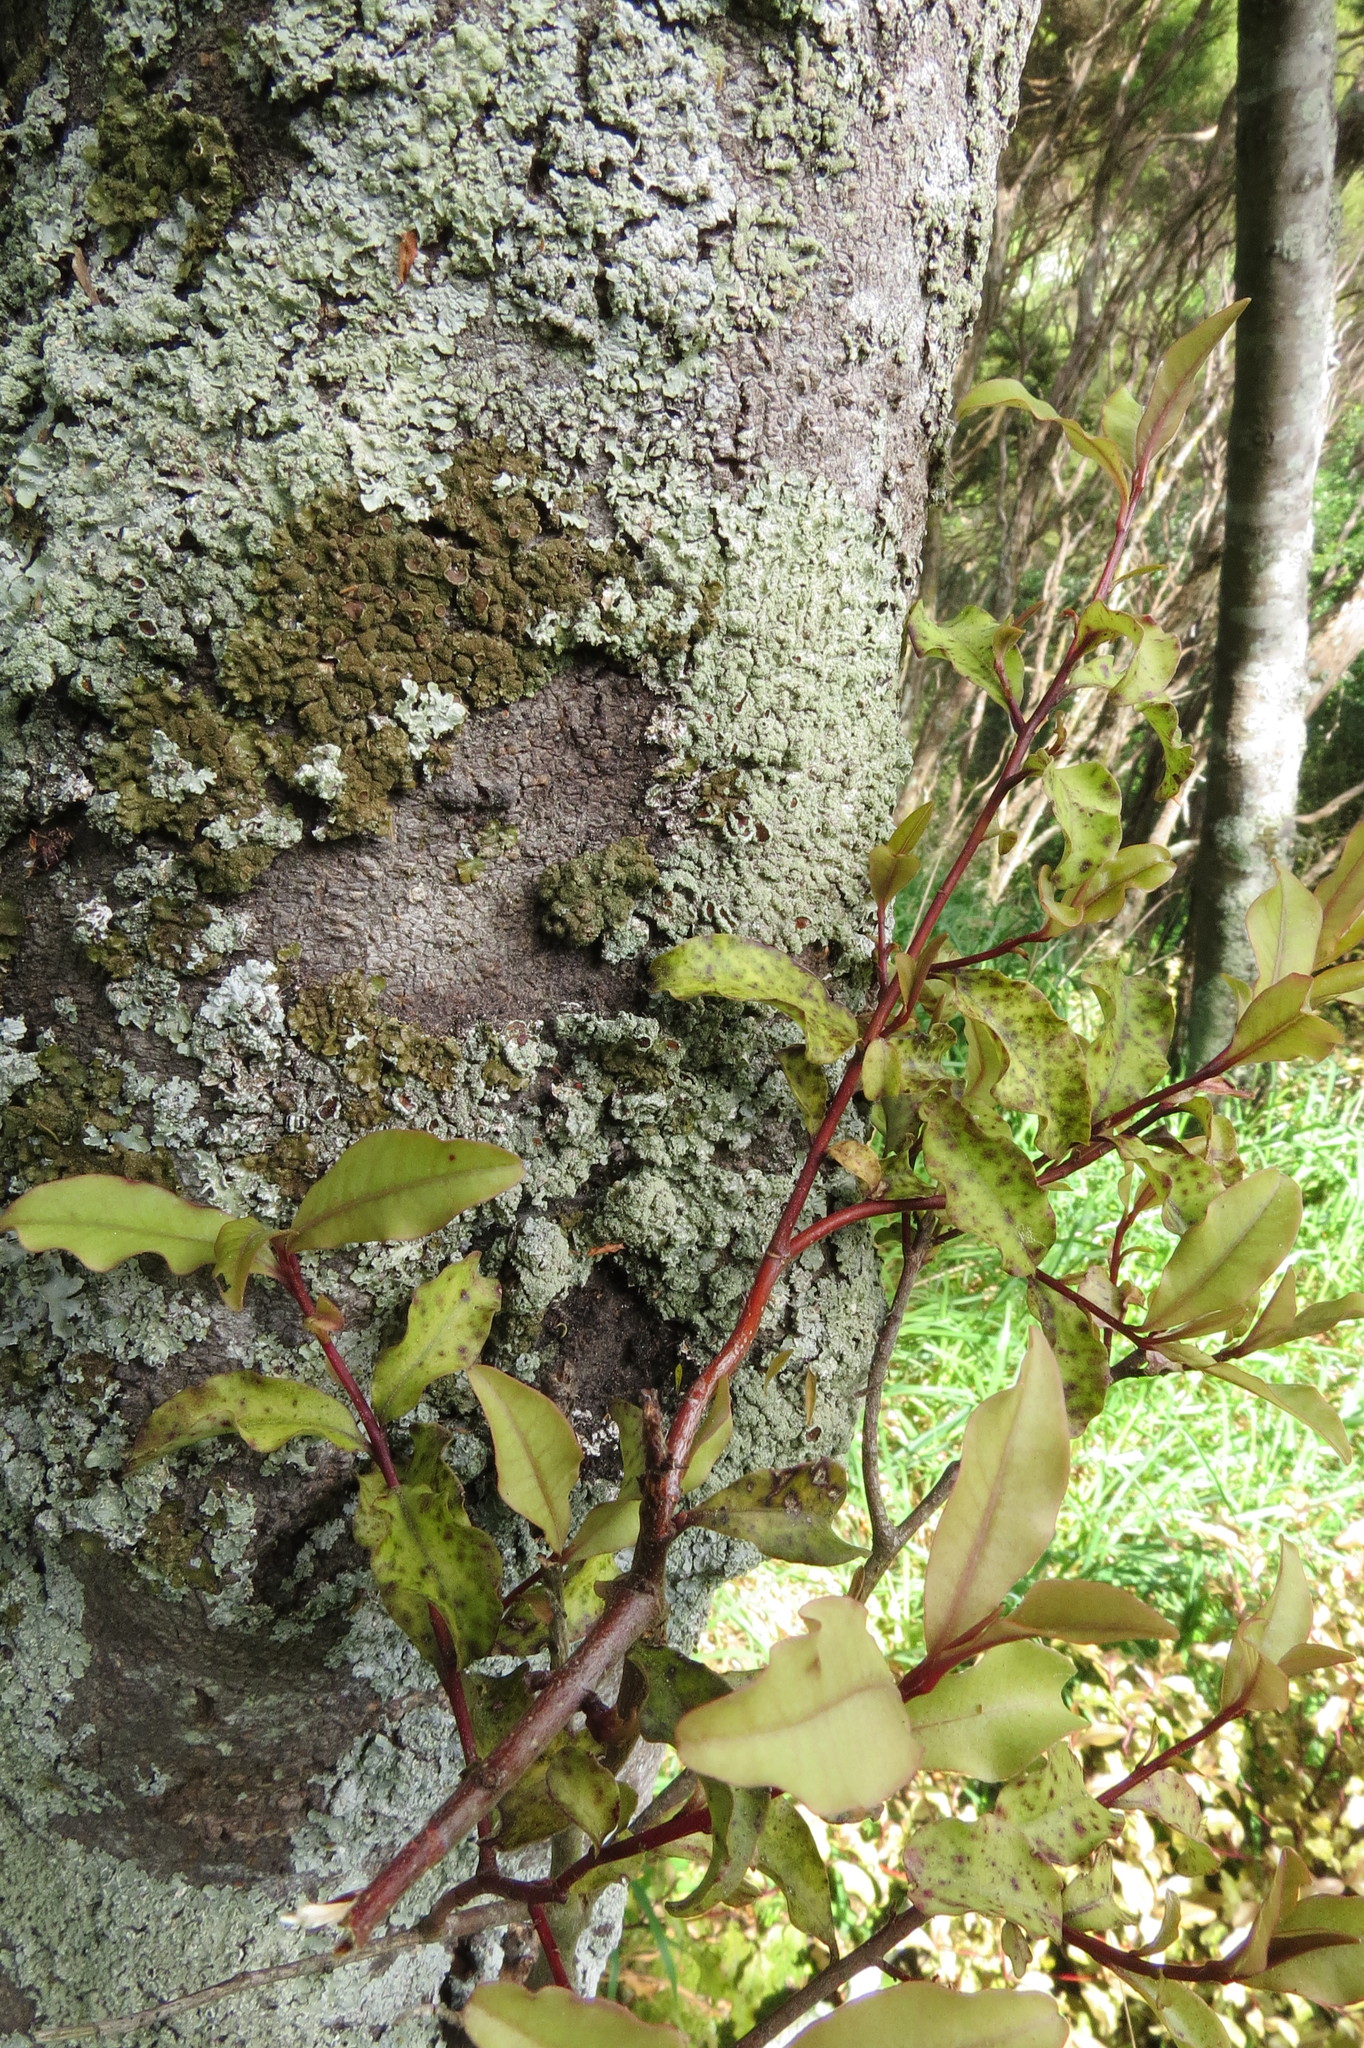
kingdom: Plantae
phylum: Tracheophyta
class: Magnoliopsida
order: Ericales
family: Primulaceae
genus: Myrsine
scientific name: Myrsine australis
